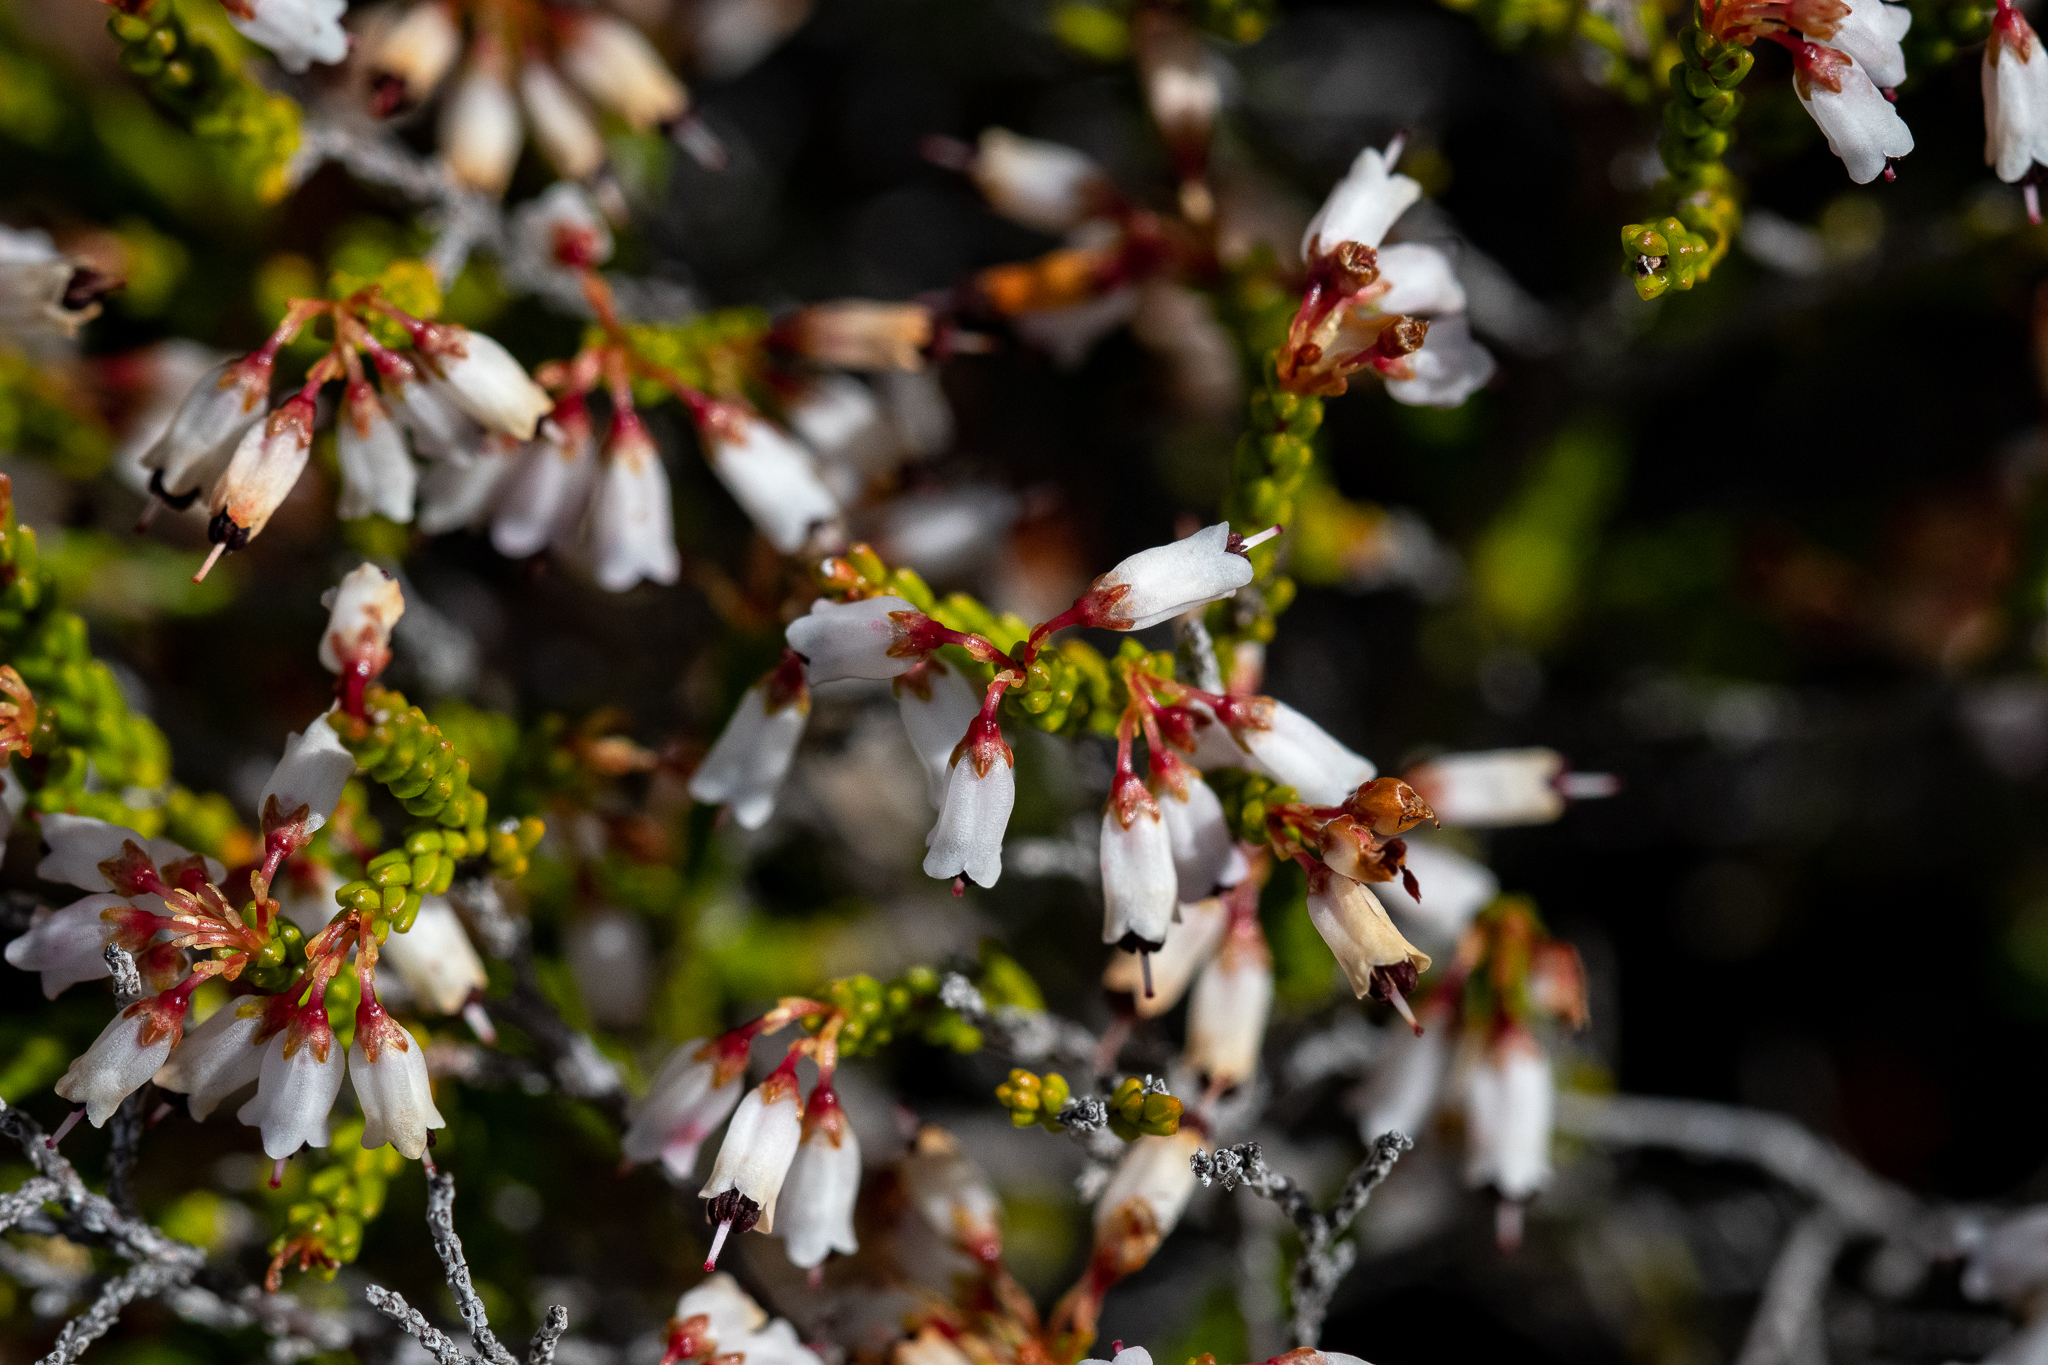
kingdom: Plantae
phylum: Tracheophyta
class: Magnoliopsida
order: Ericales
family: Ericaceae
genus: Erica
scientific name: Erica equisetifolia
